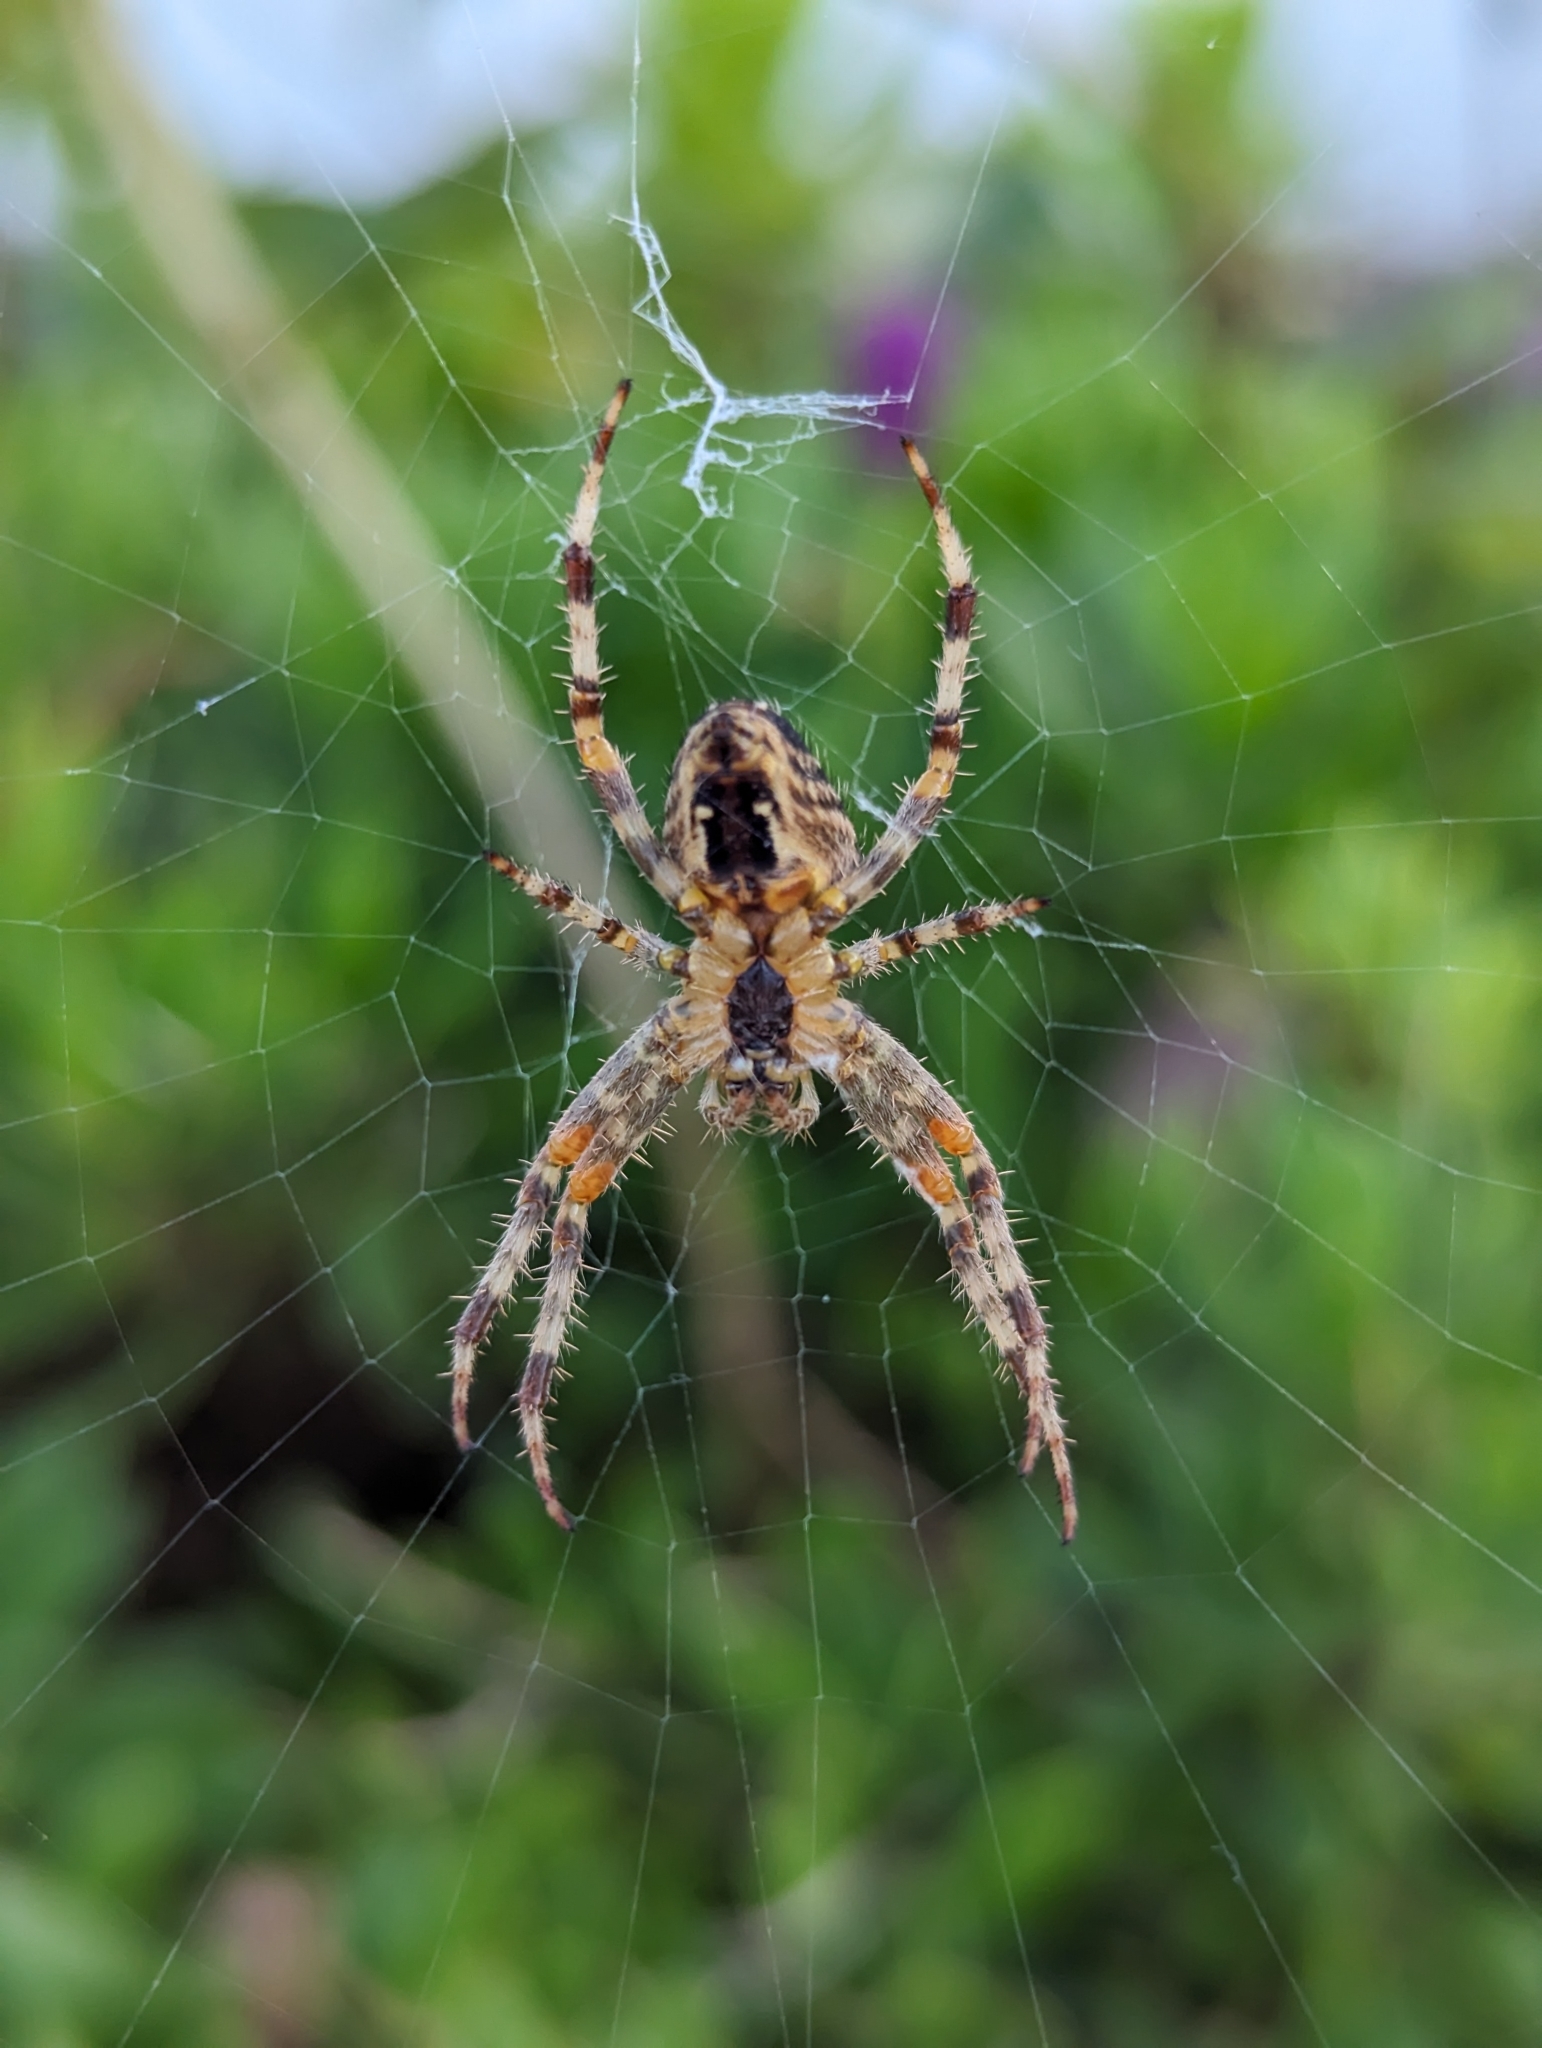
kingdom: Animalia
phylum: Arthropoda
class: Arachnida
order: Araneae
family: Araneidae
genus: Araneus
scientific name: Araneus diadematus
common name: Cross orbweaver
